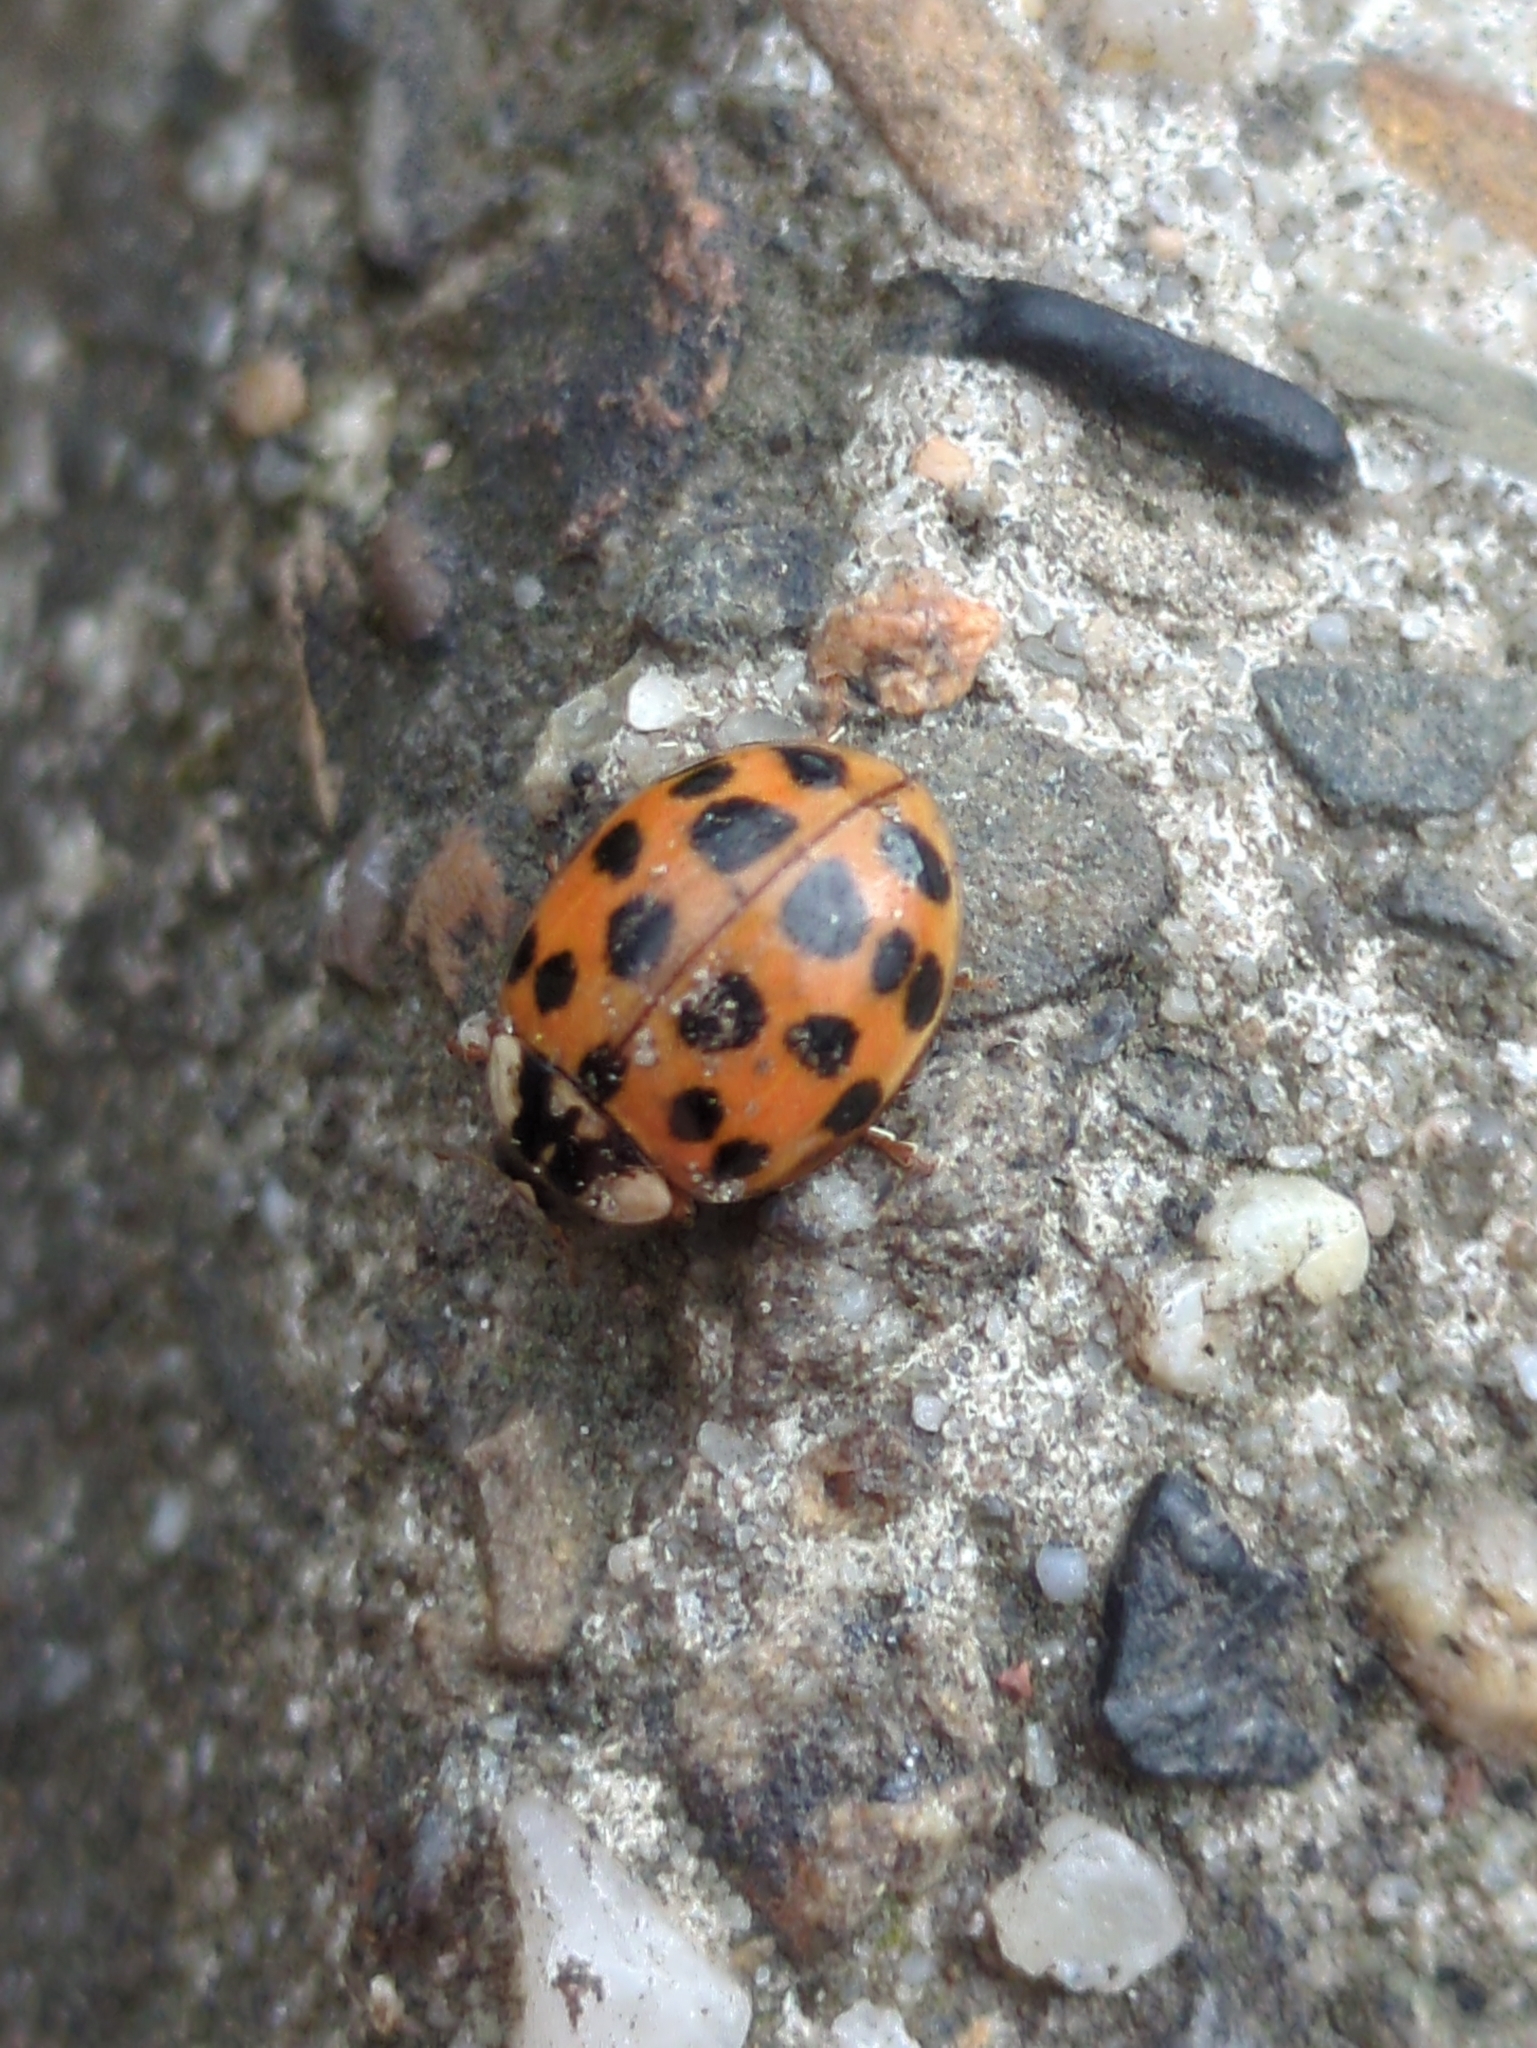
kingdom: Animalia
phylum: Arthropoda
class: Insecta
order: Coleoptera
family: Coccinellidae
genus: Harmonia
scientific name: Harmonia axyridis
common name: Harlequin ladybird
